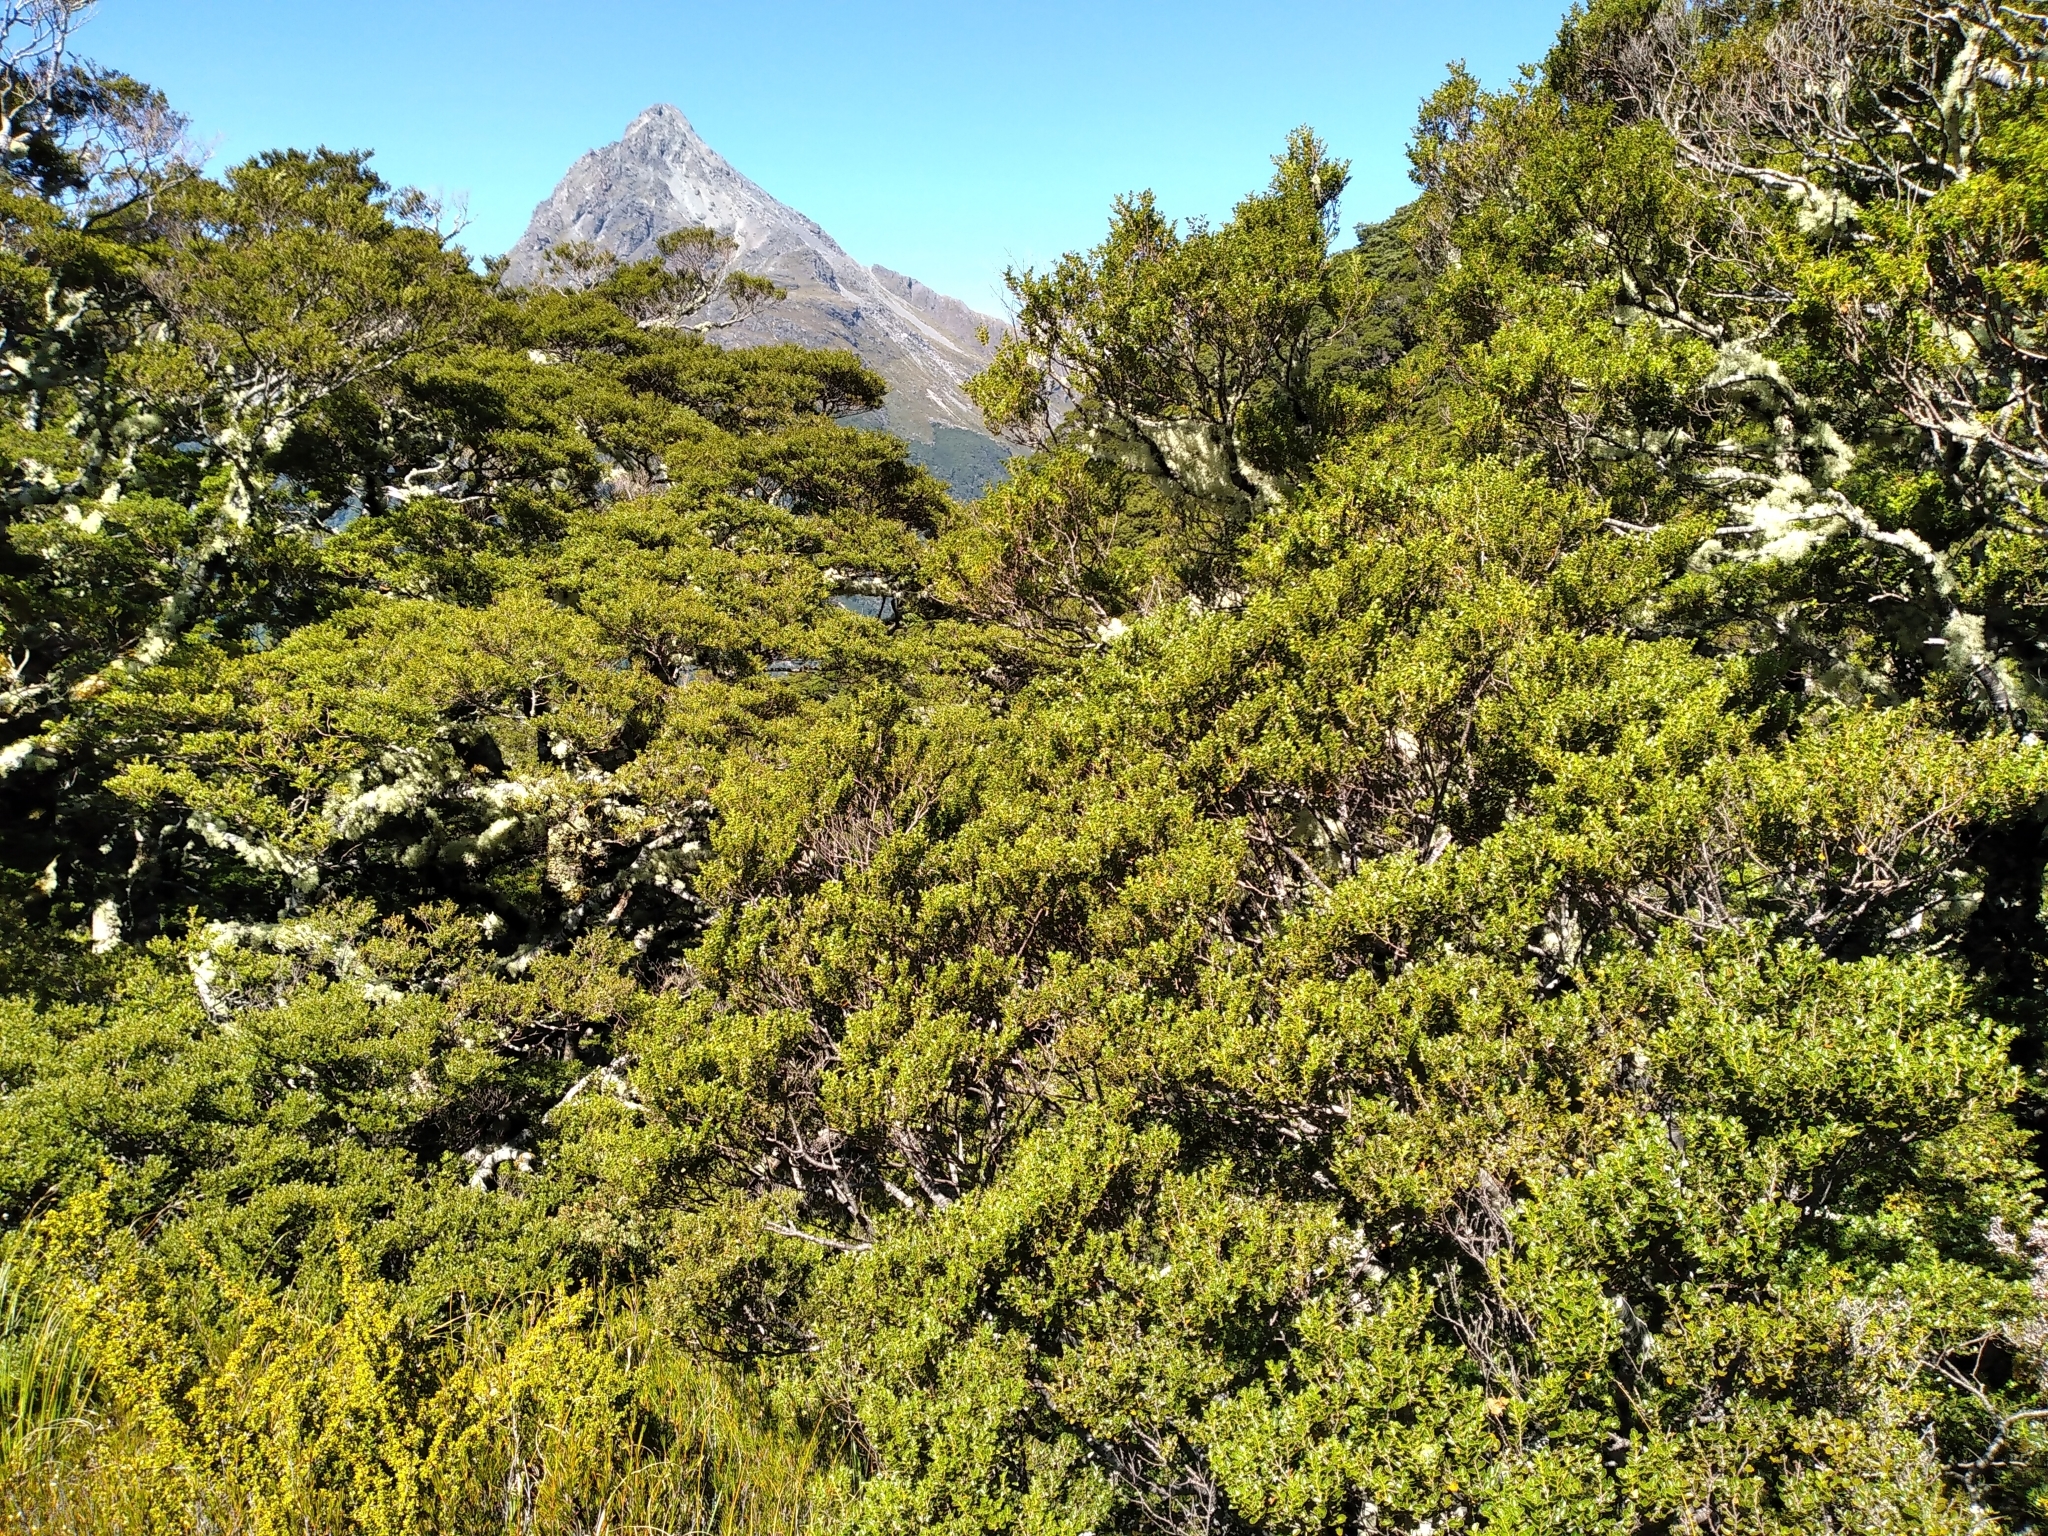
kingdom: Plantae
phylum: Tracheophyta
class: Magnoliopsida
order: Fagales
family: Nothofagaceae
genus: Nothofagus
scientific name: Nothofagus menziesii
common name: Silver beech
